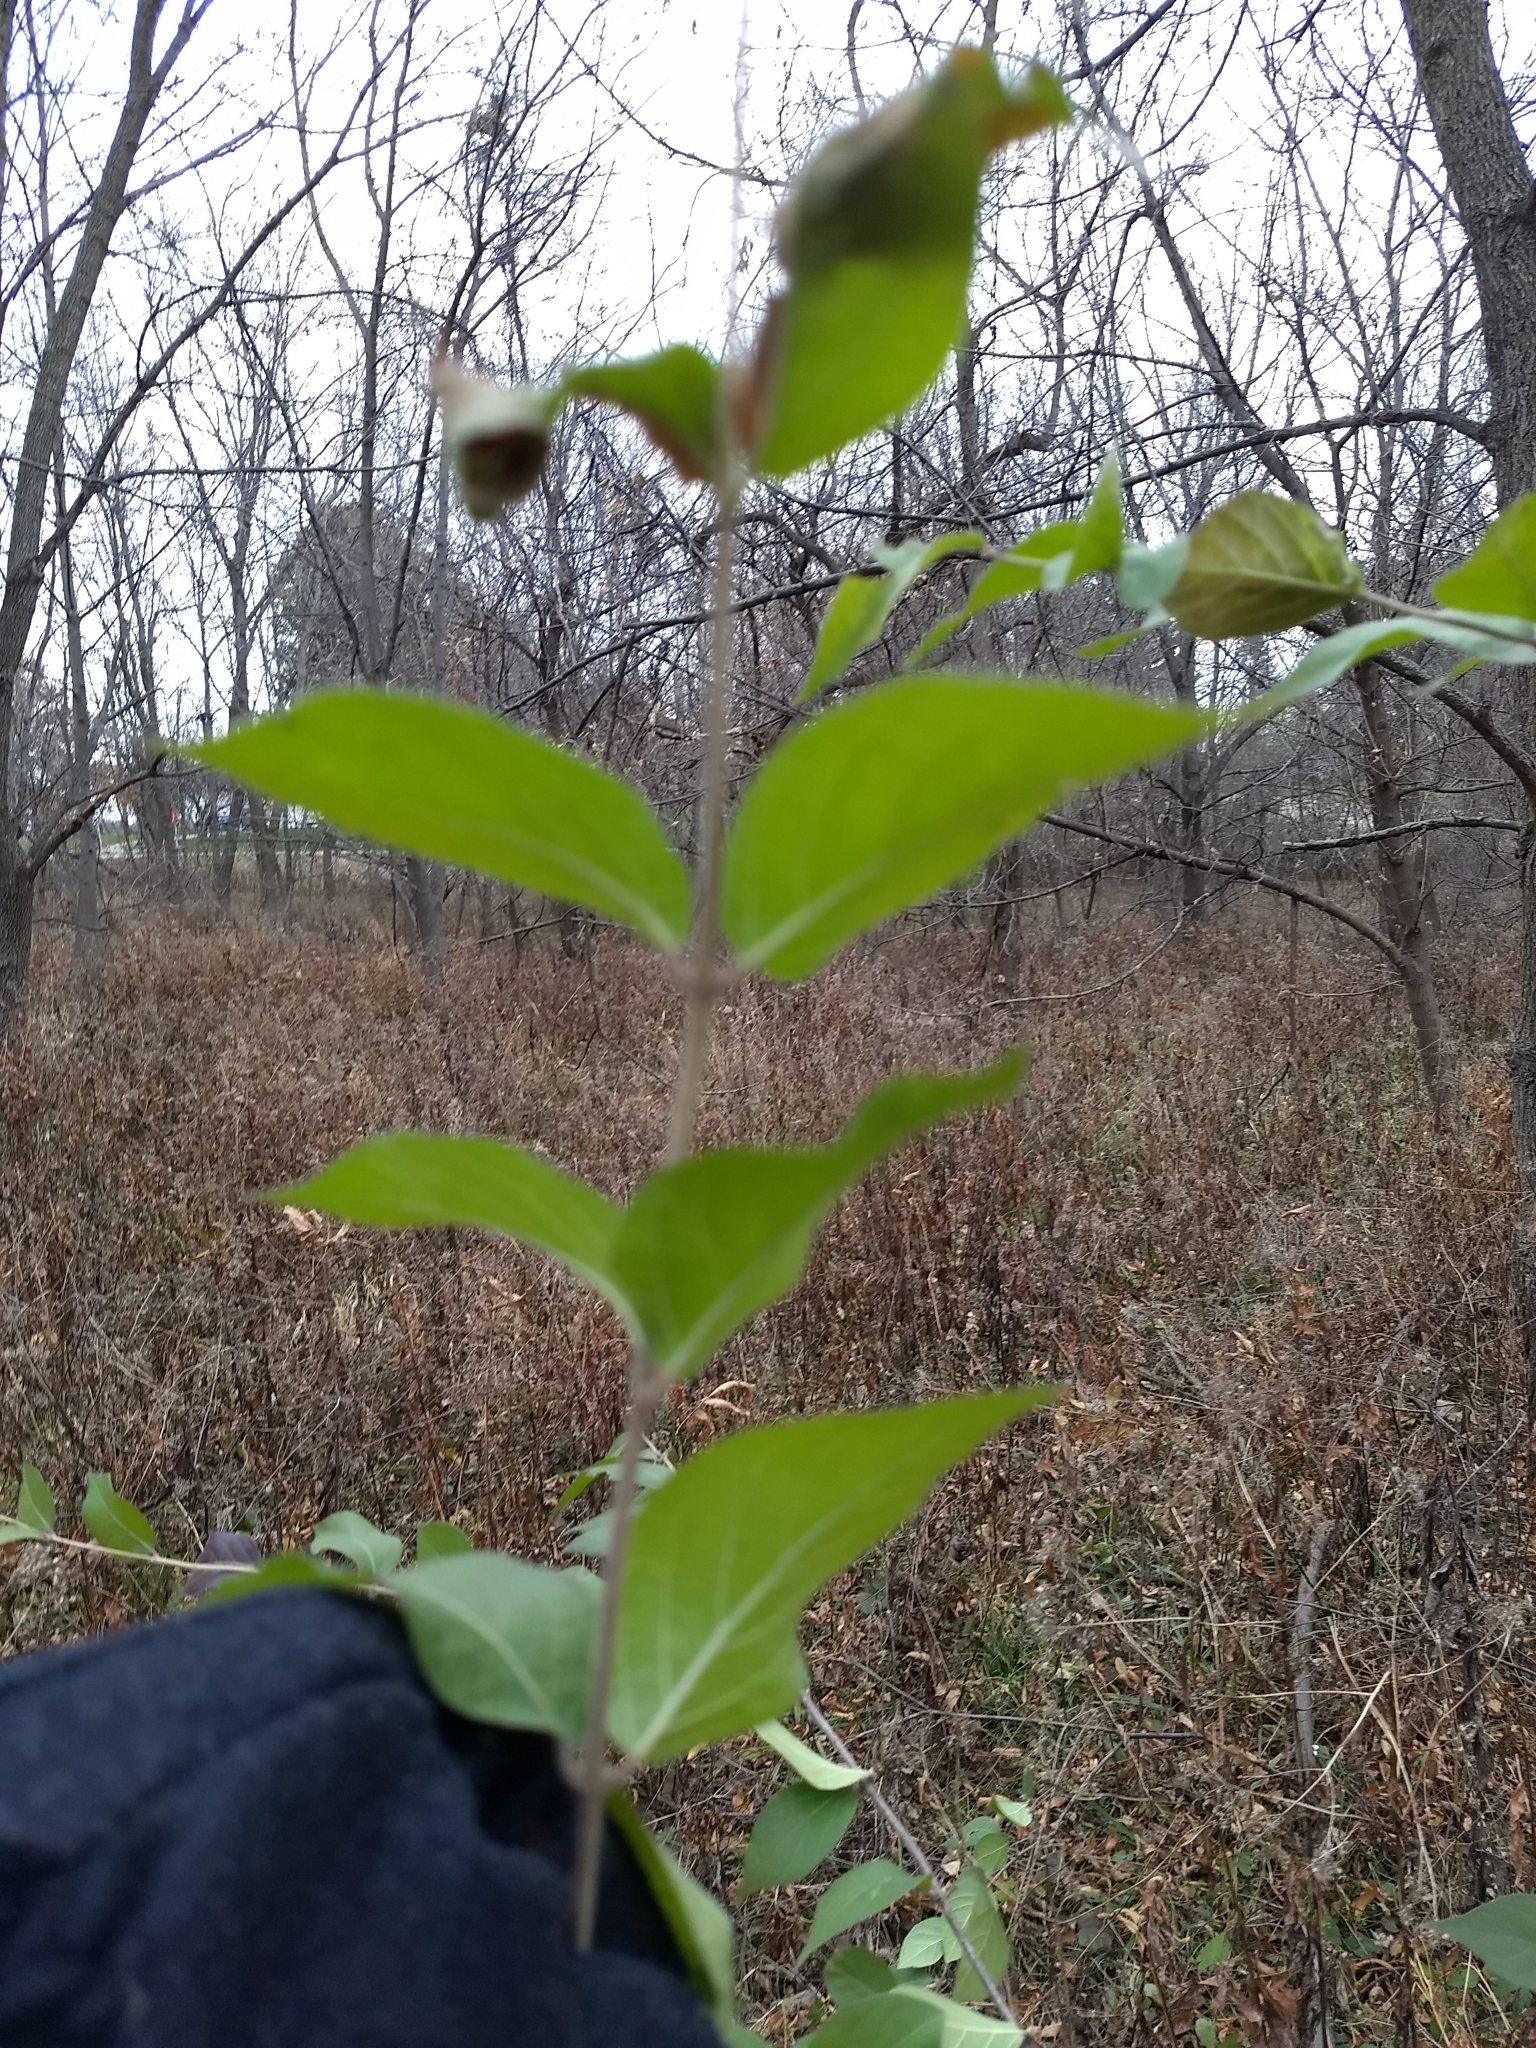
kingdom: Plantae
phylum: Tracheophyta
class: Magnoliopsida
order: Dipsacales
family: Caprifoliaceae
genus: Lonicera
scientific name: Lonicera maackii
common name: Amur honeysuckle
